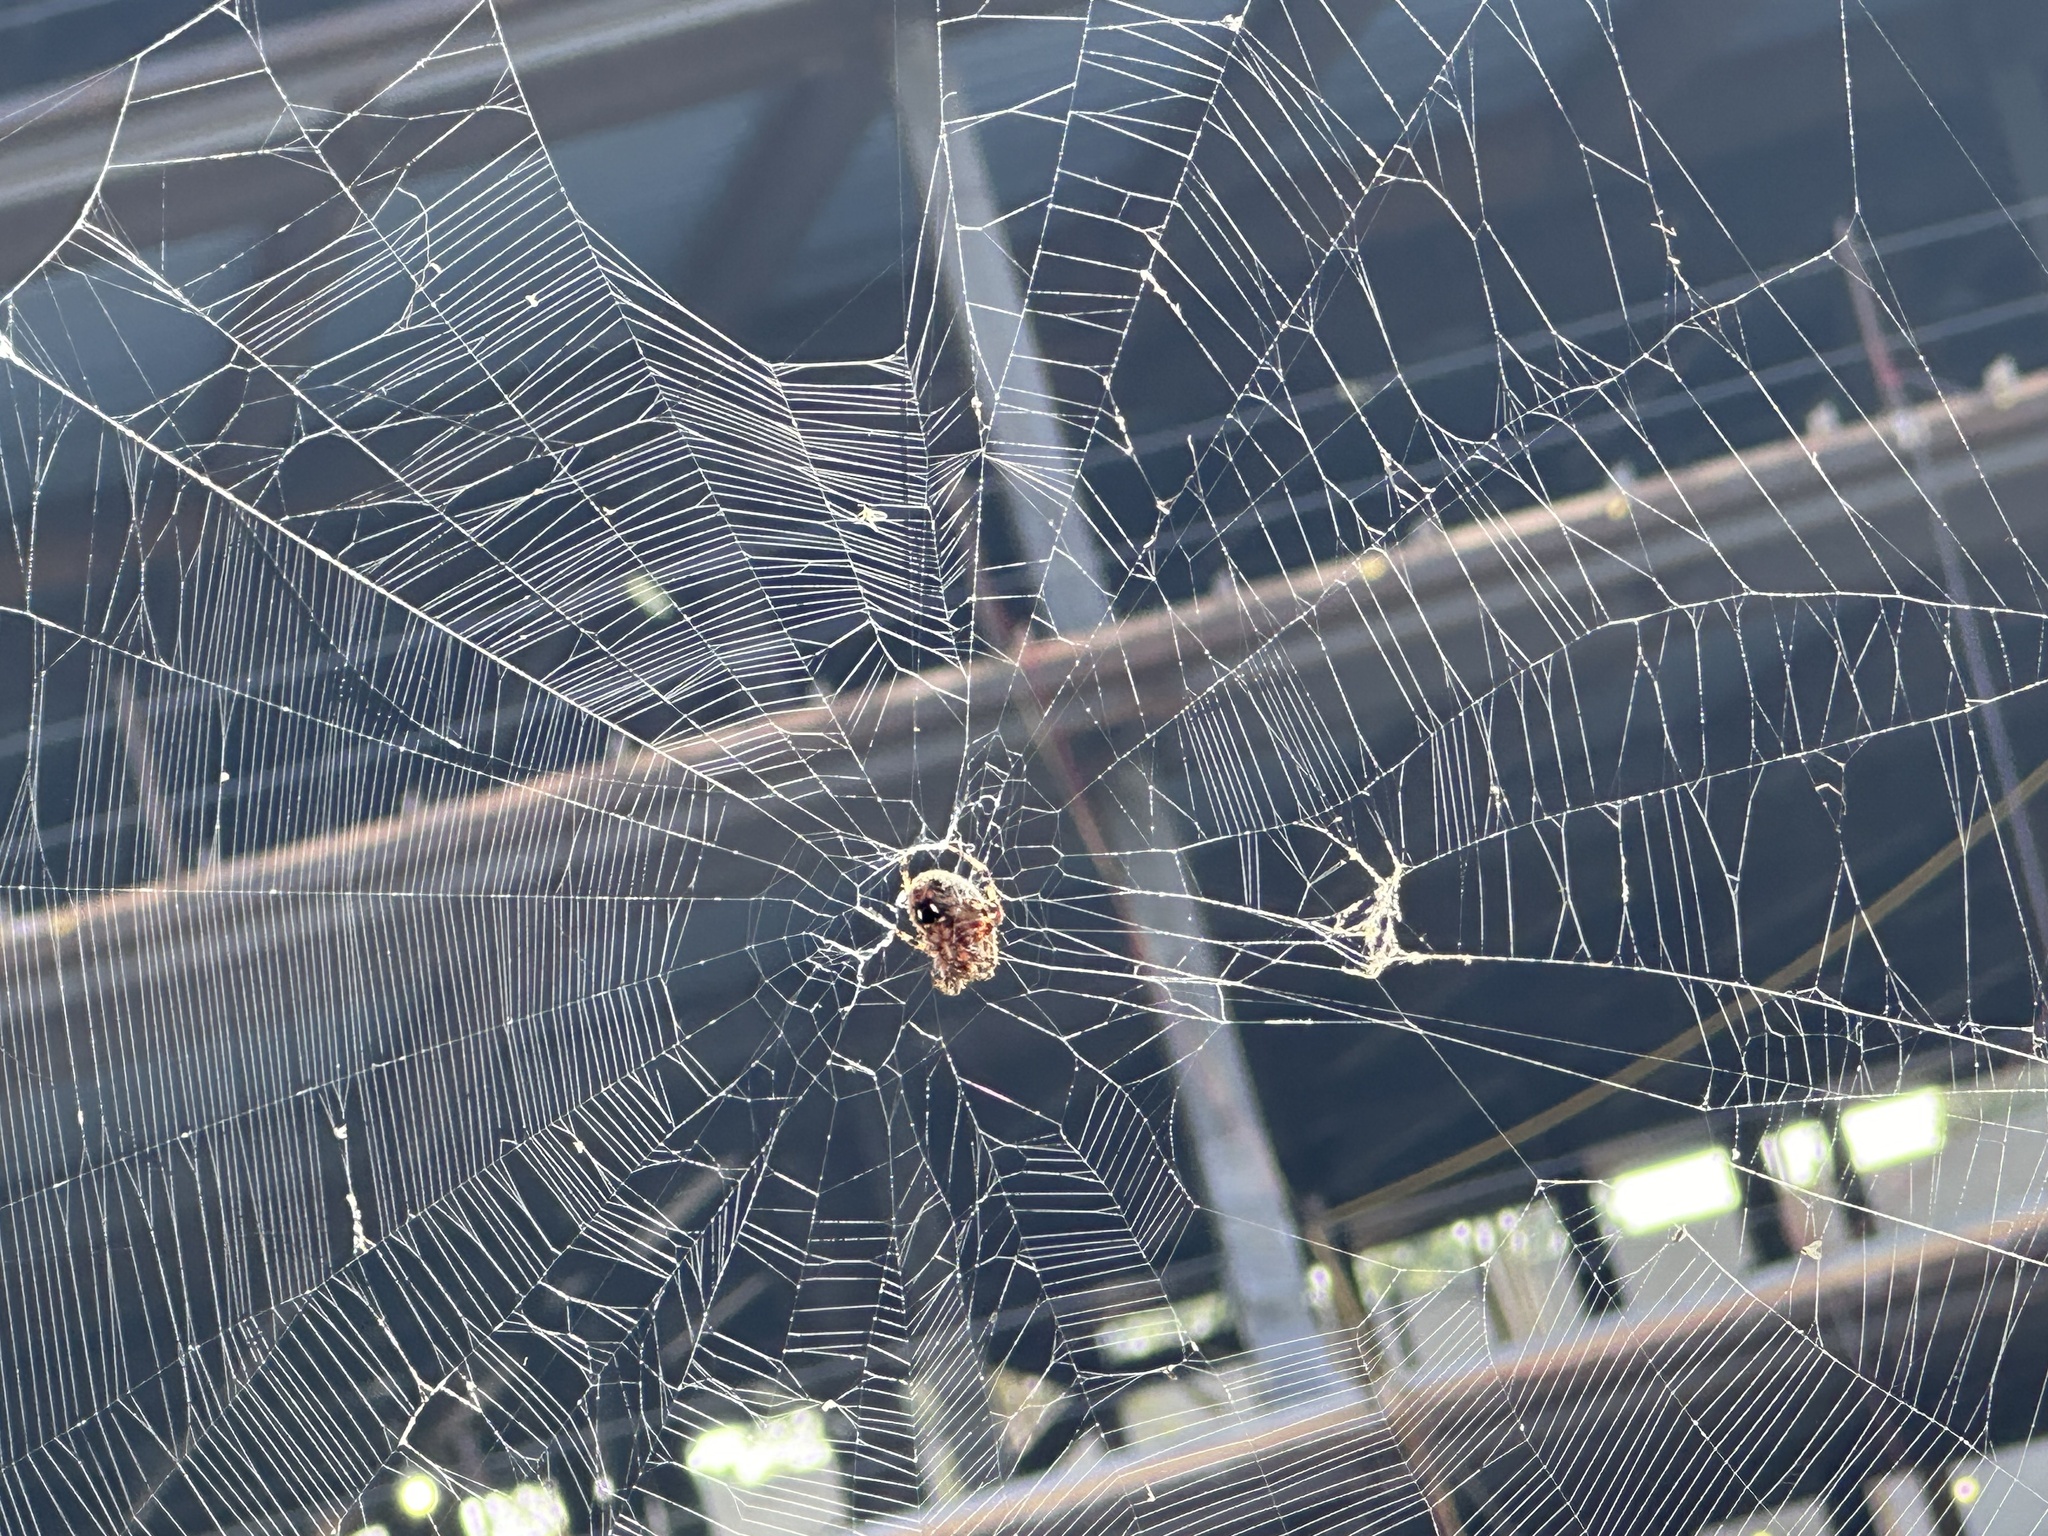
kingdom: Animalia
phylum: Arthropoda
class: Arachnida
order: Araneae
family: Araneidae
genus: Neoscona
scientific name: Neoscona oaxacensis
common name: Orb weavers
